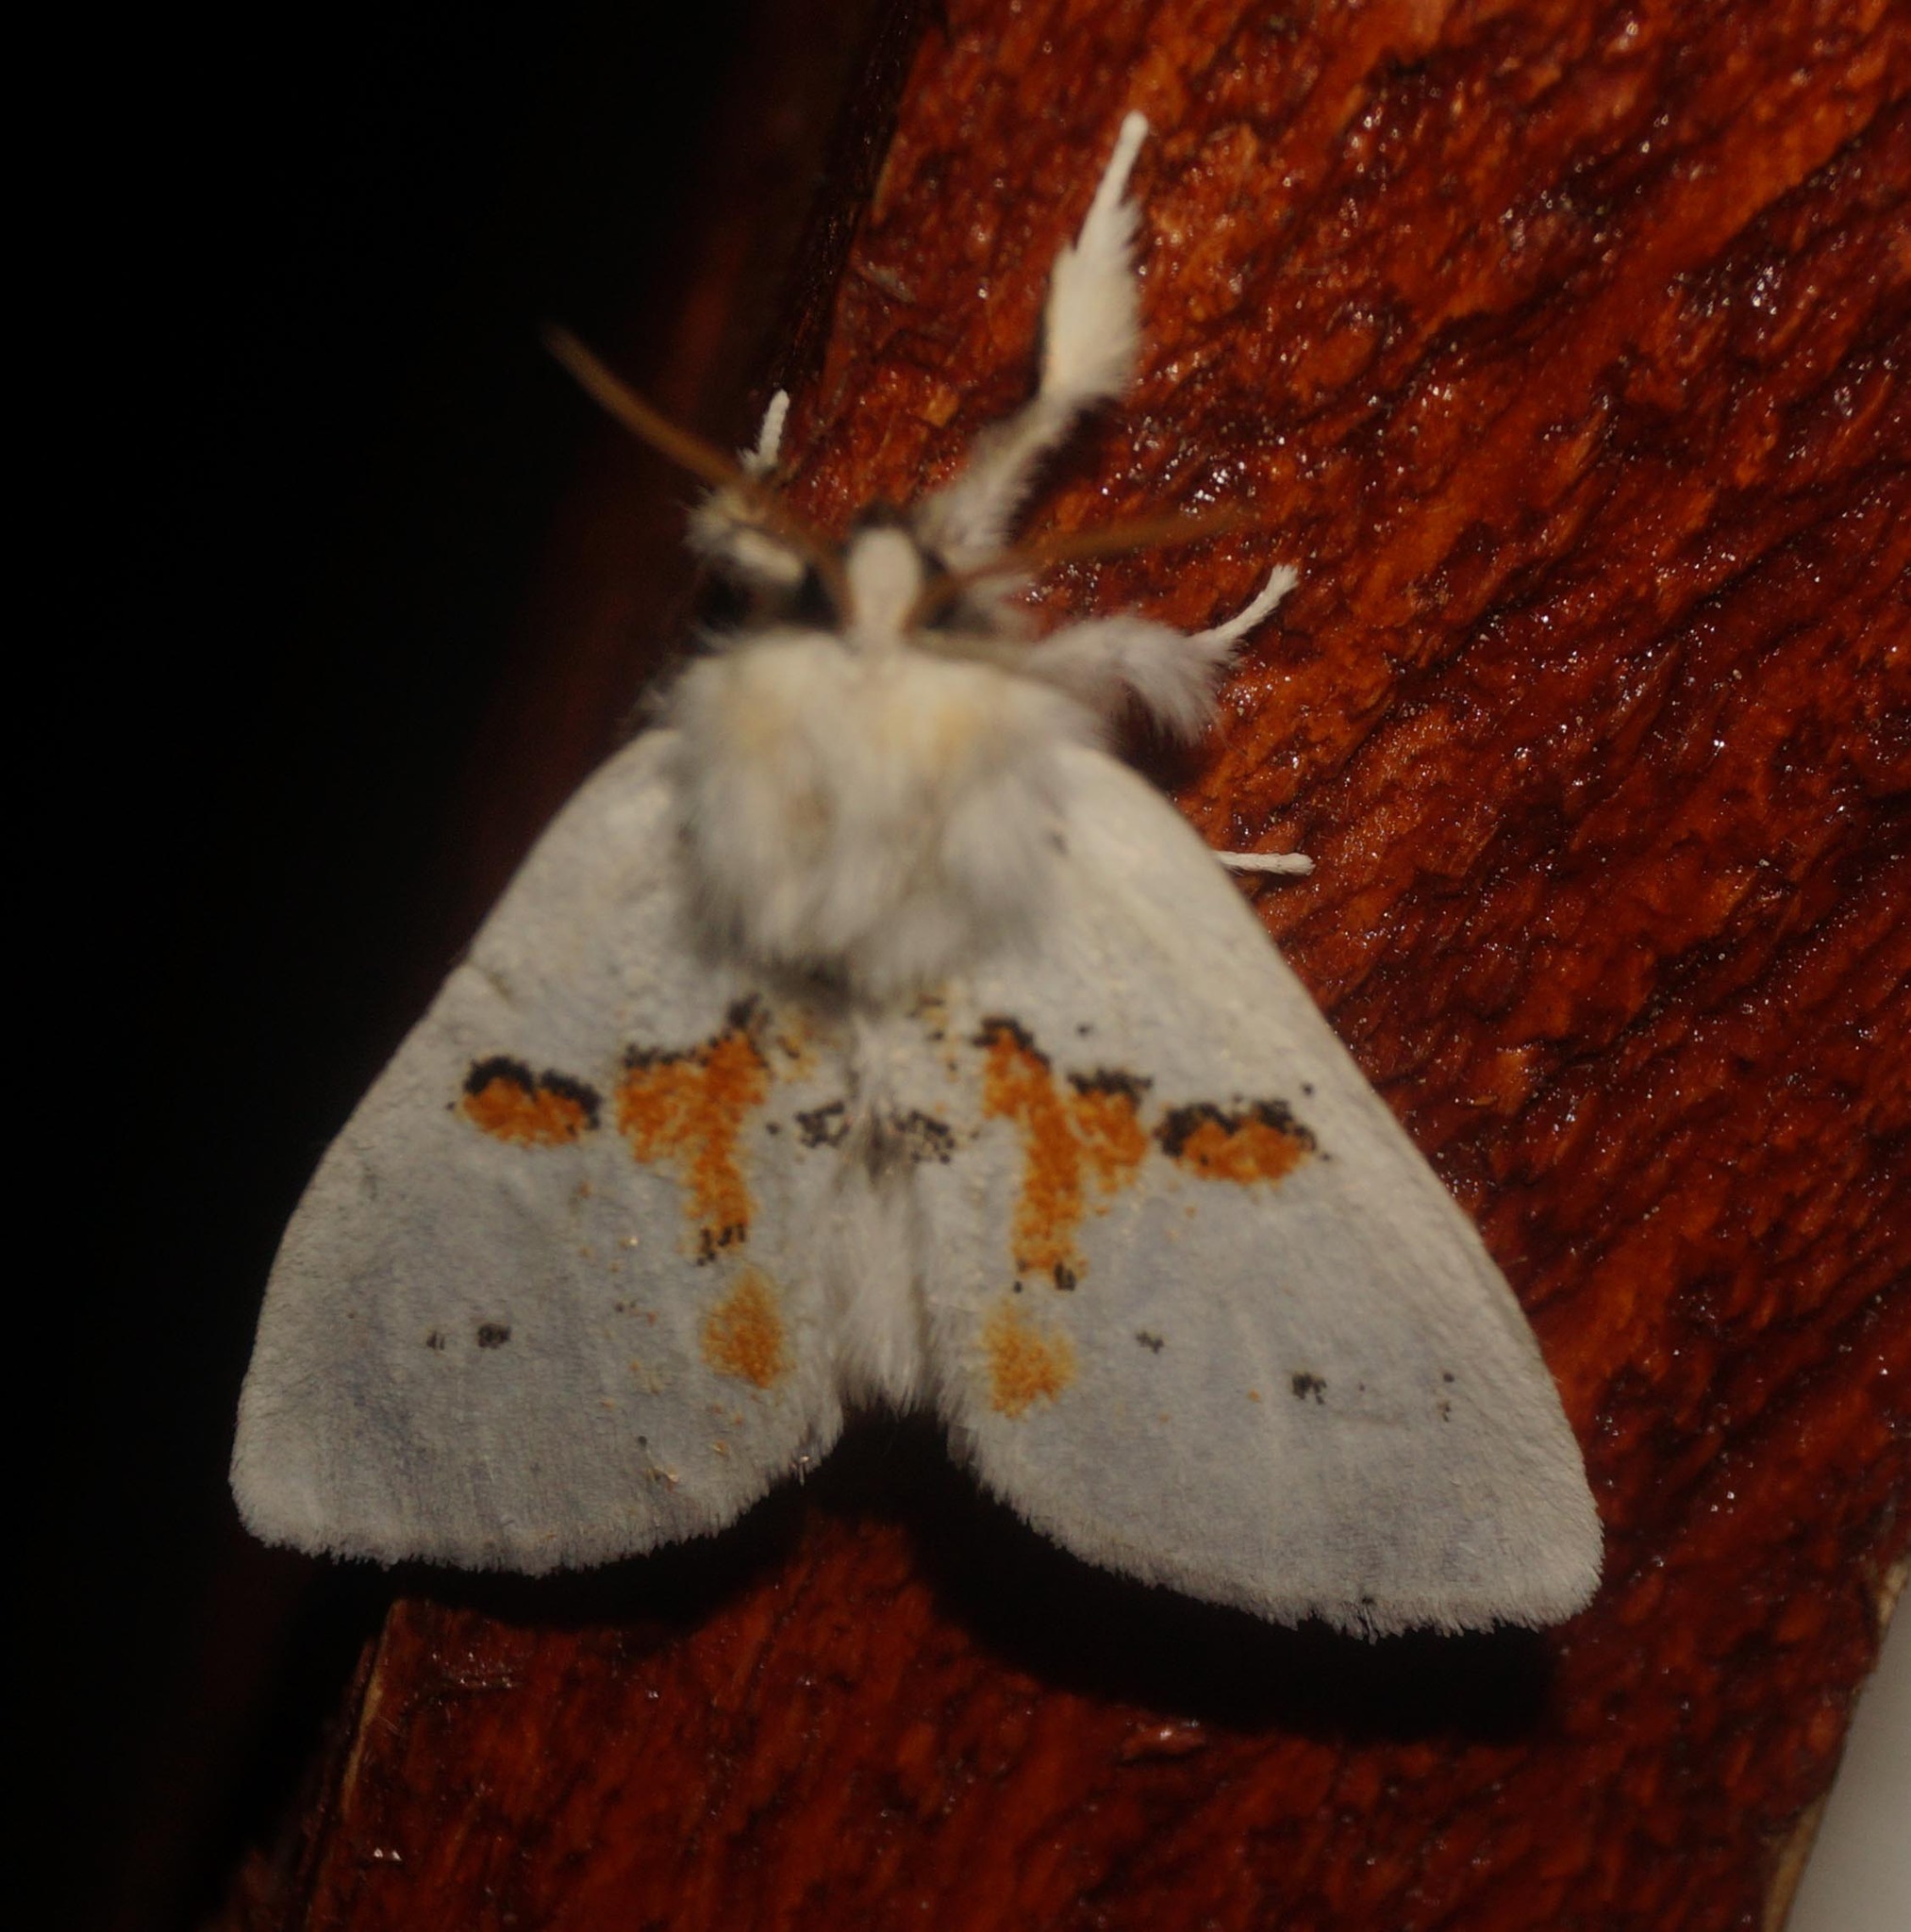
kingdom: Animalia
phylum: Arthropoda
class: Insecta
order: Lepidoptera
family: Notodontidae
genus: Leucodonta
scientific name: Leucodonta bicoloria
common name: White prominent
